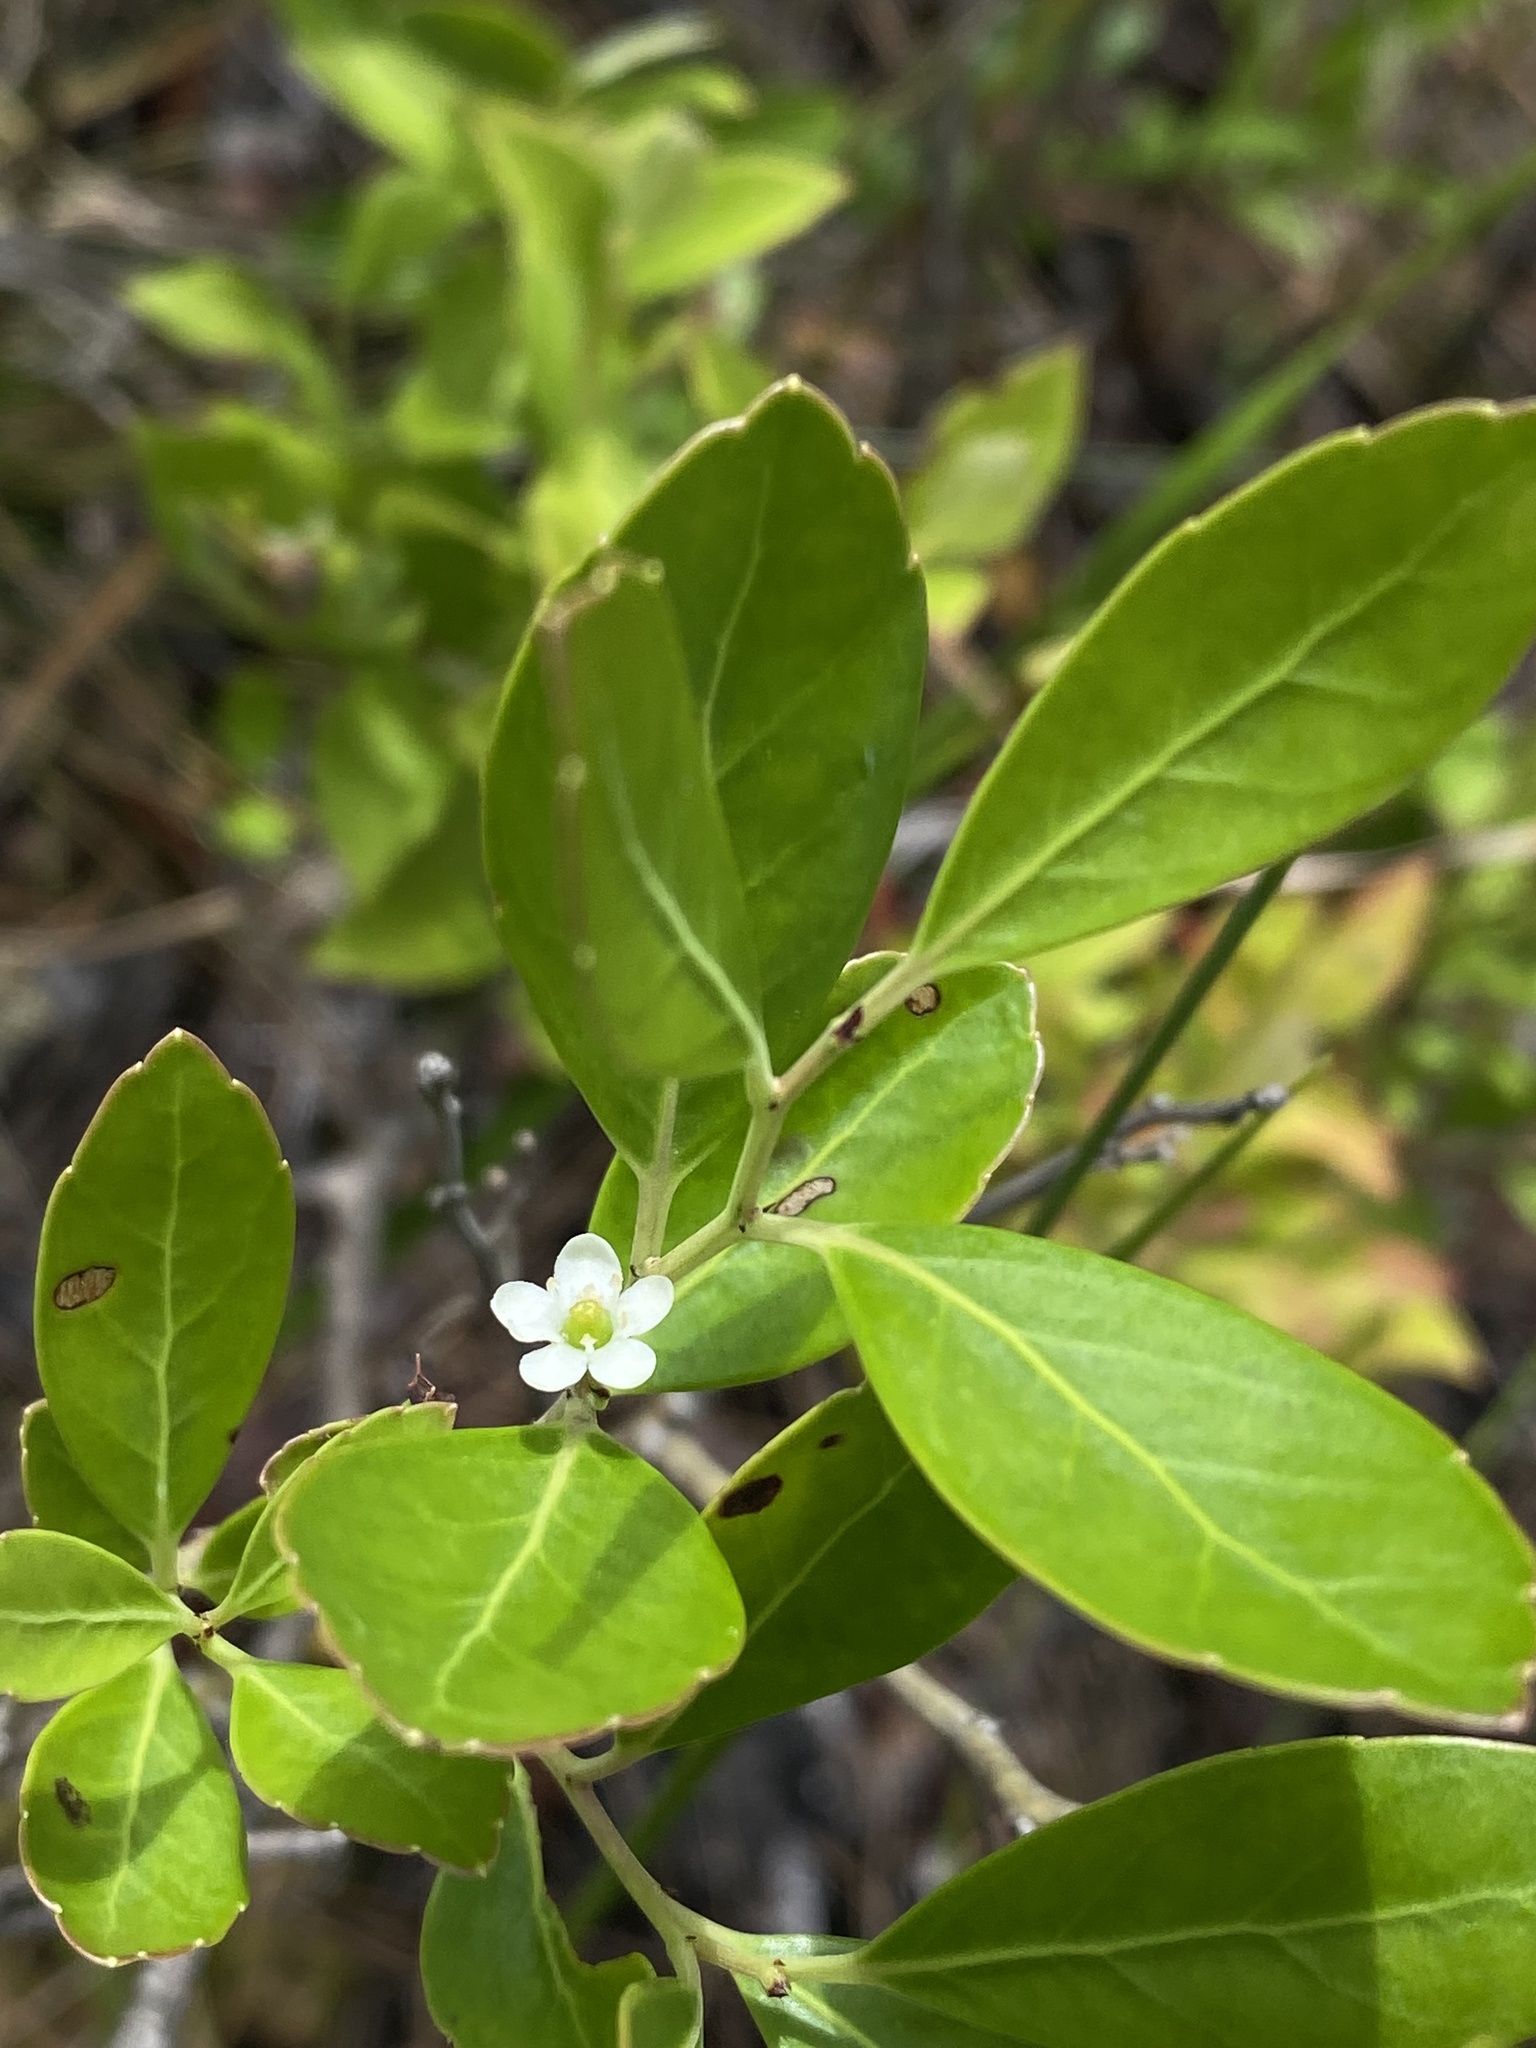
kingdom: Plantae
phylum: Tracheophyta
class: Magnoliopsida
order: Aquifoliales
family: Aquifoliaceae
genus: Ilex
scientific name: Ilex glabra
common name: Bitter gallberry
